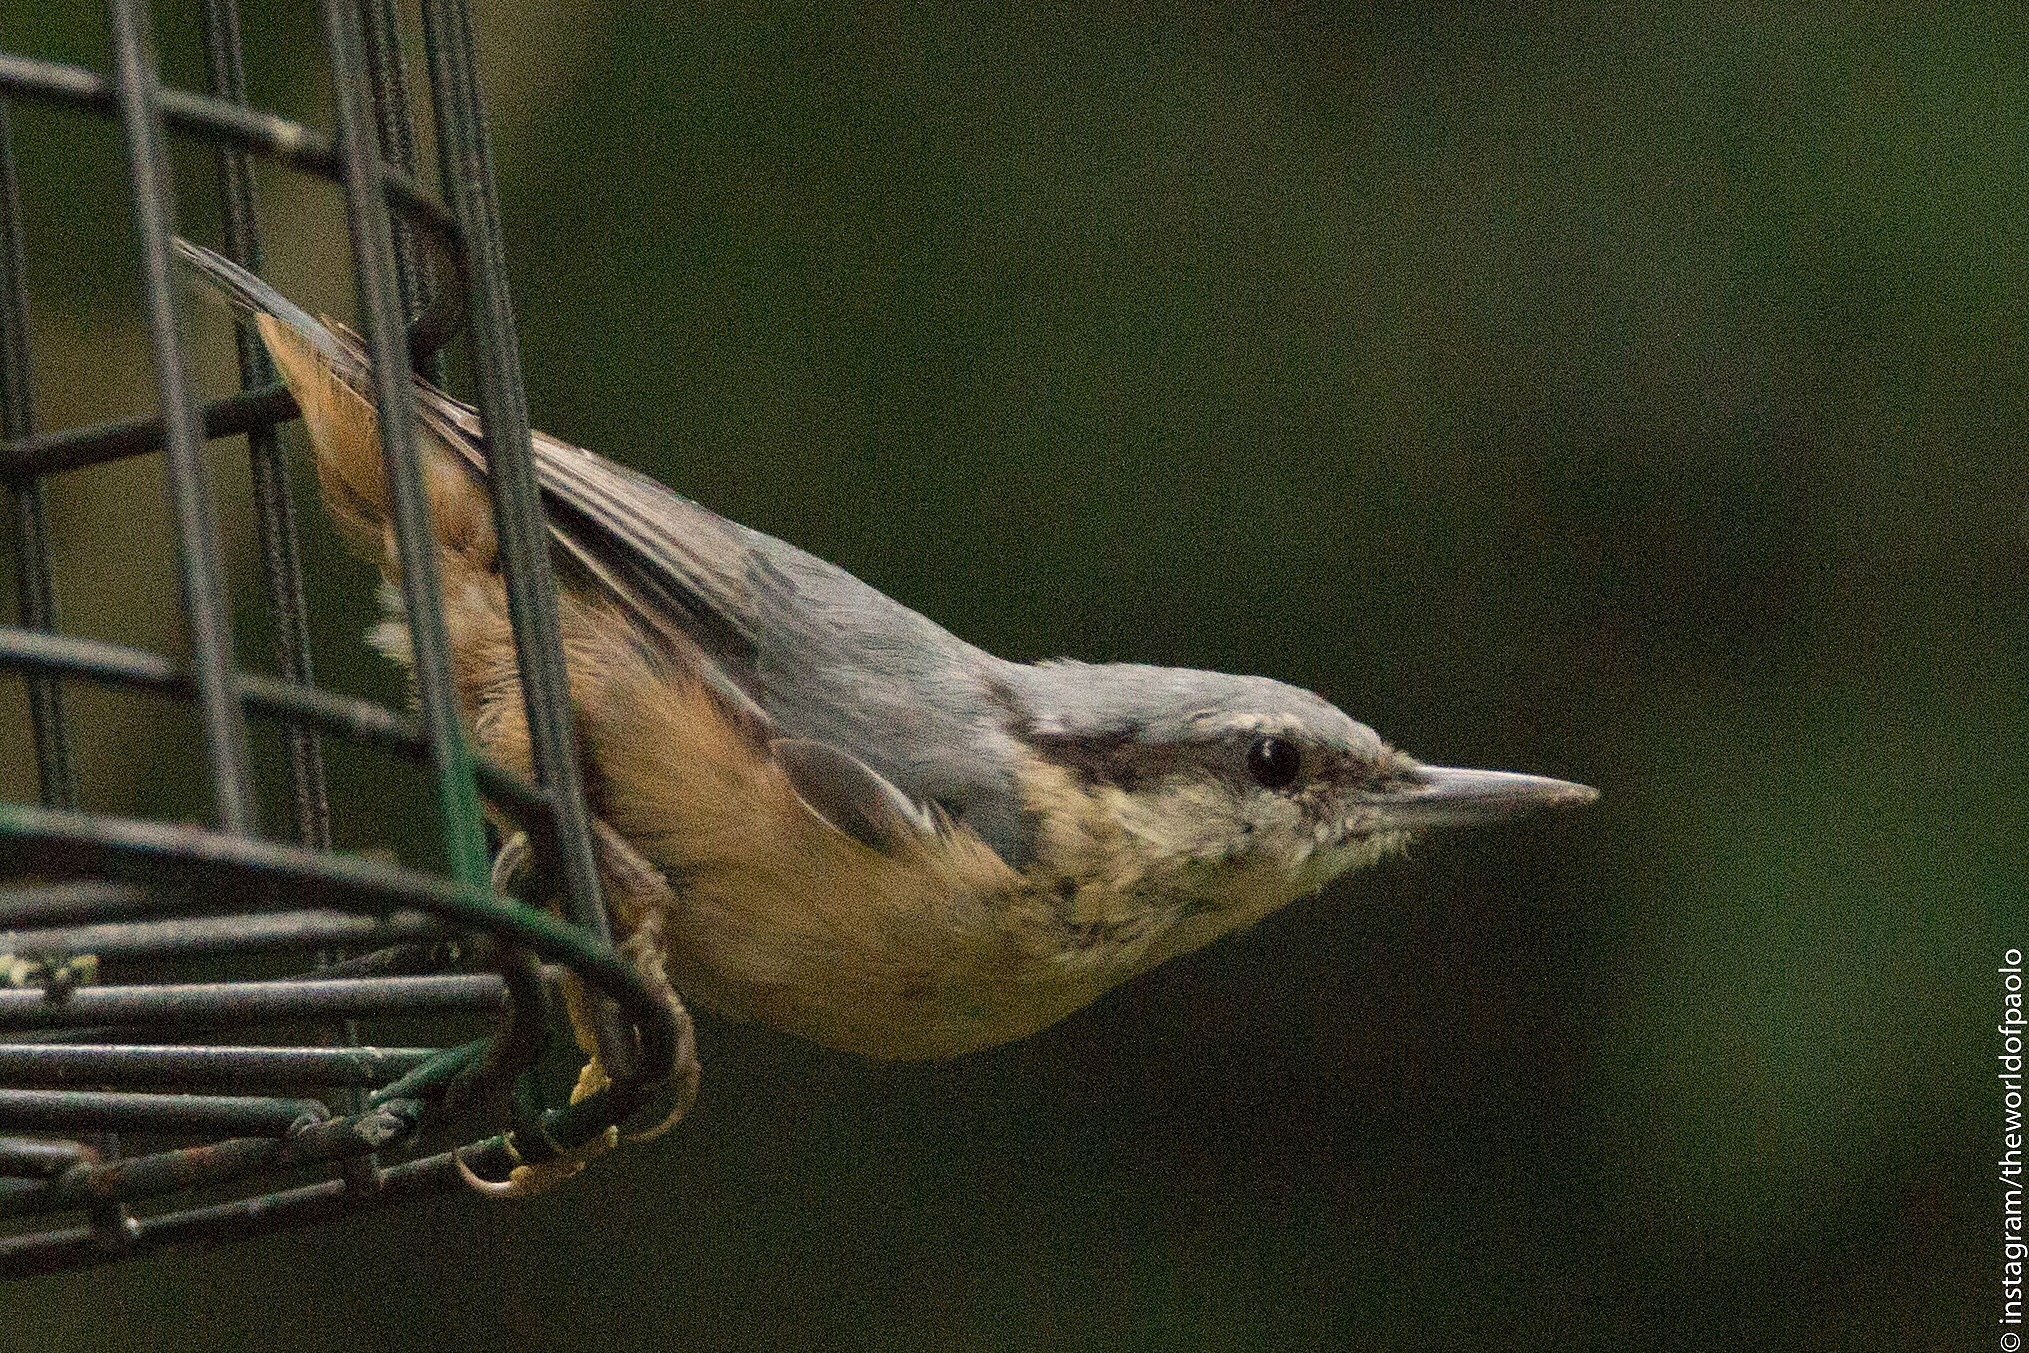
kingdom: Animalia
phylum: Chordata
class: Aves
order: Passeriformes
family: Sittidae
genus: Sitta
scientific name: Sitta europaea
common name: Eurasian nuthatch
